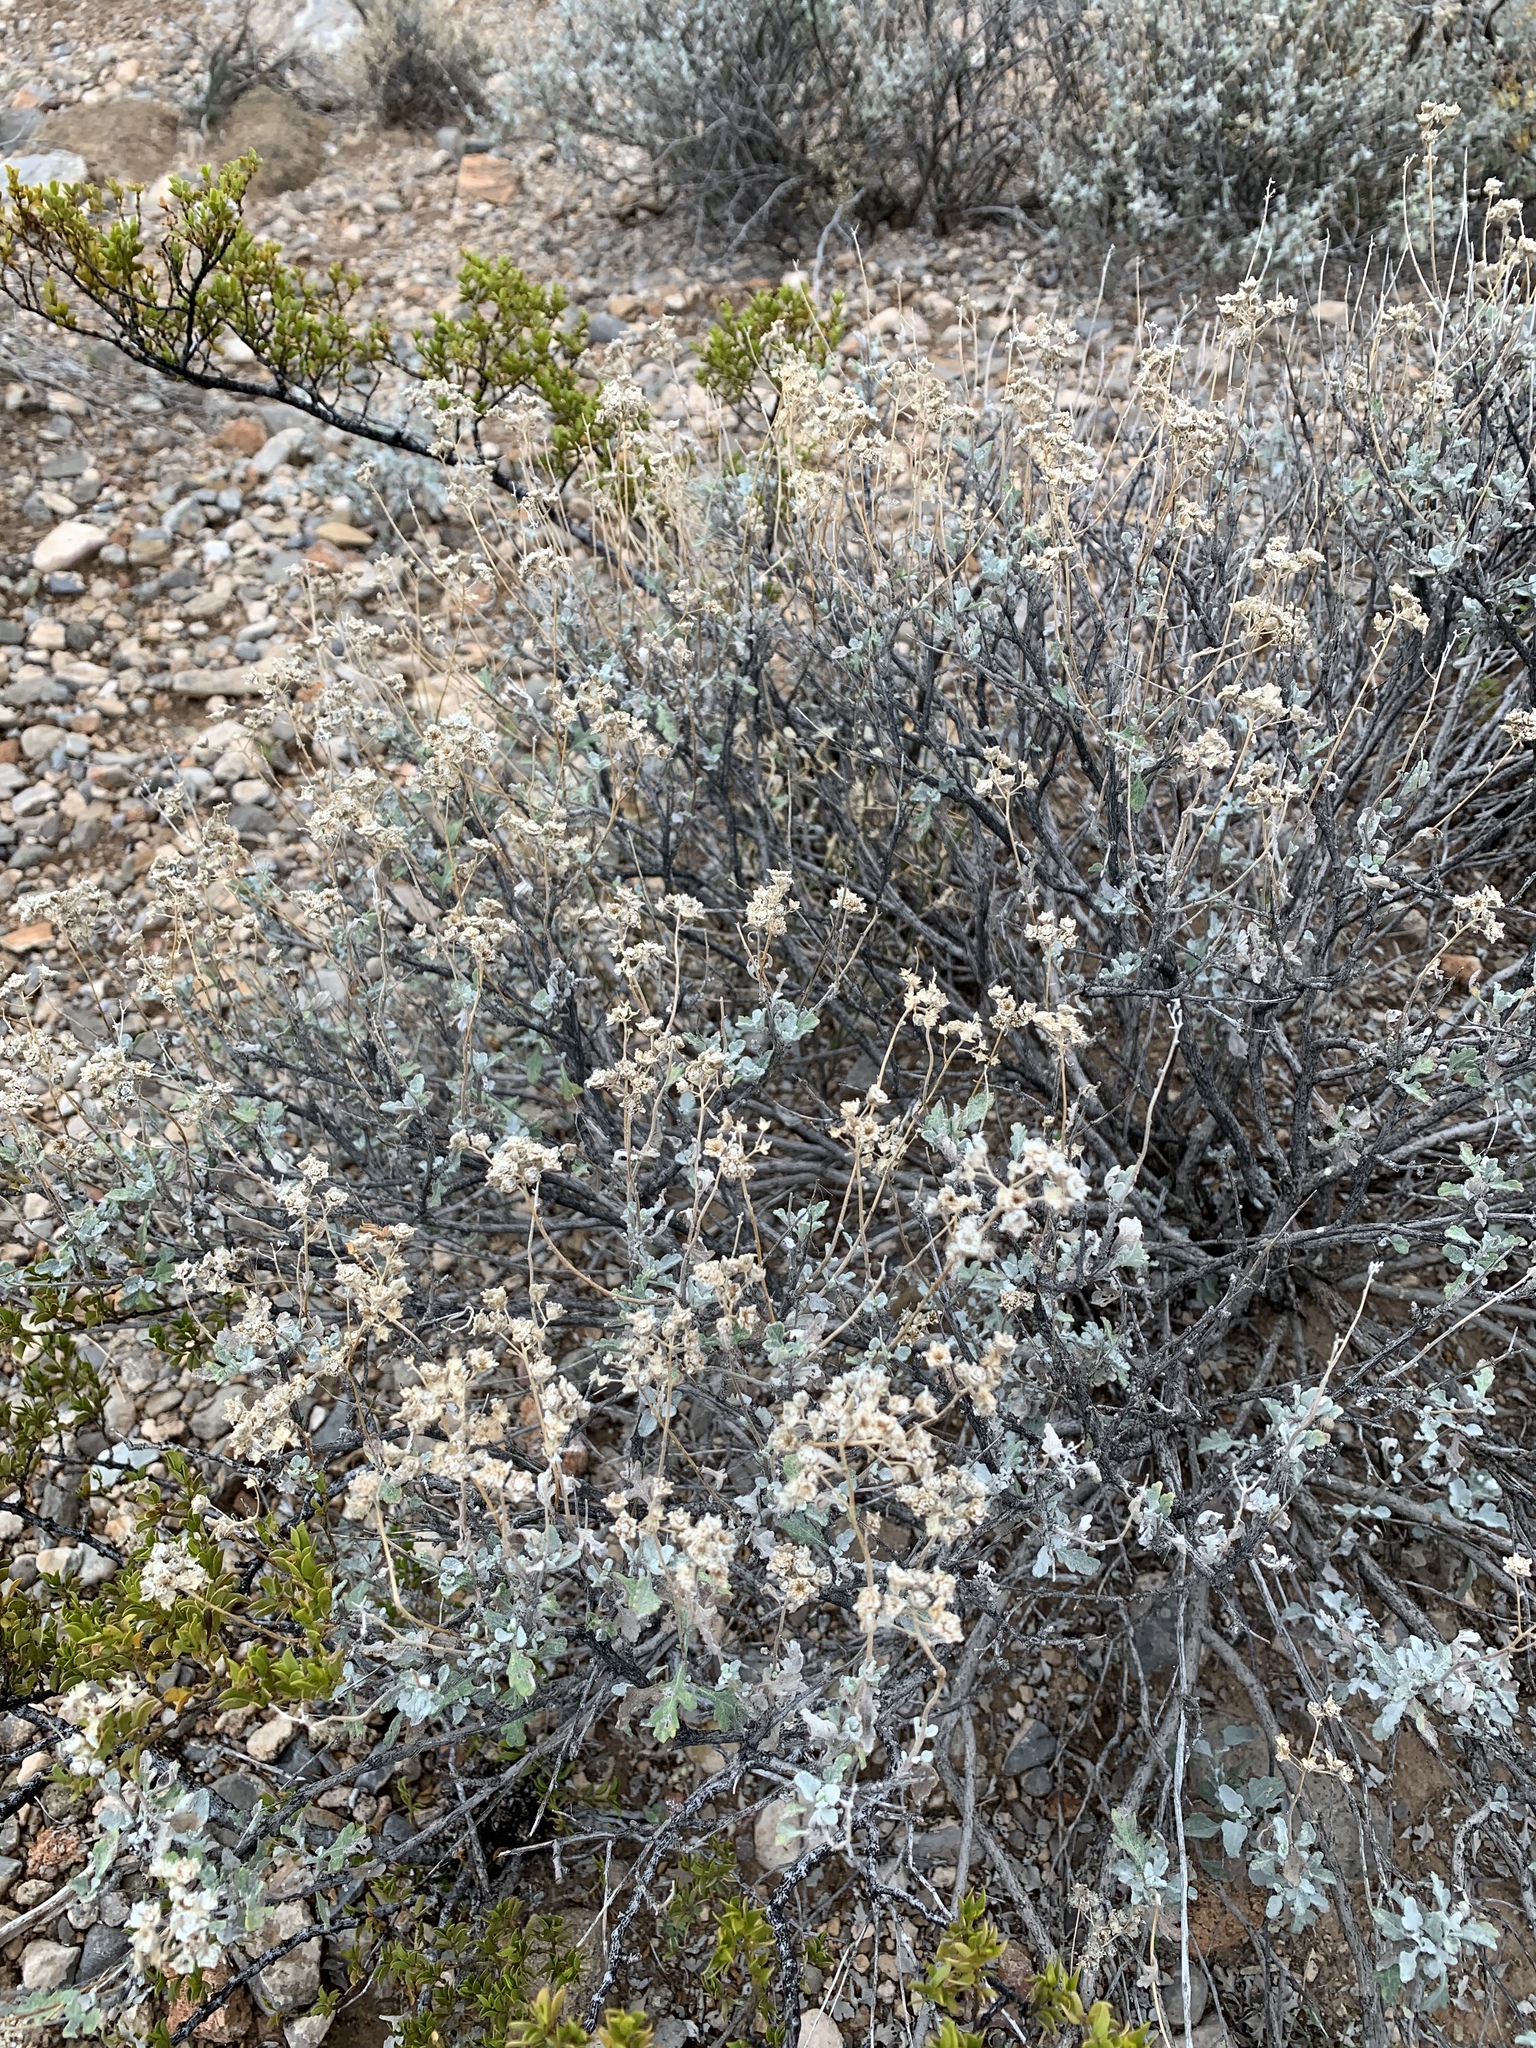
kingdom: Plantae
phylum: Tracheophyta
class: Magnoliopsida
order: Asterales
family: Asteraceae
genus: Parthenium
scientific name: Parthenium incanum
